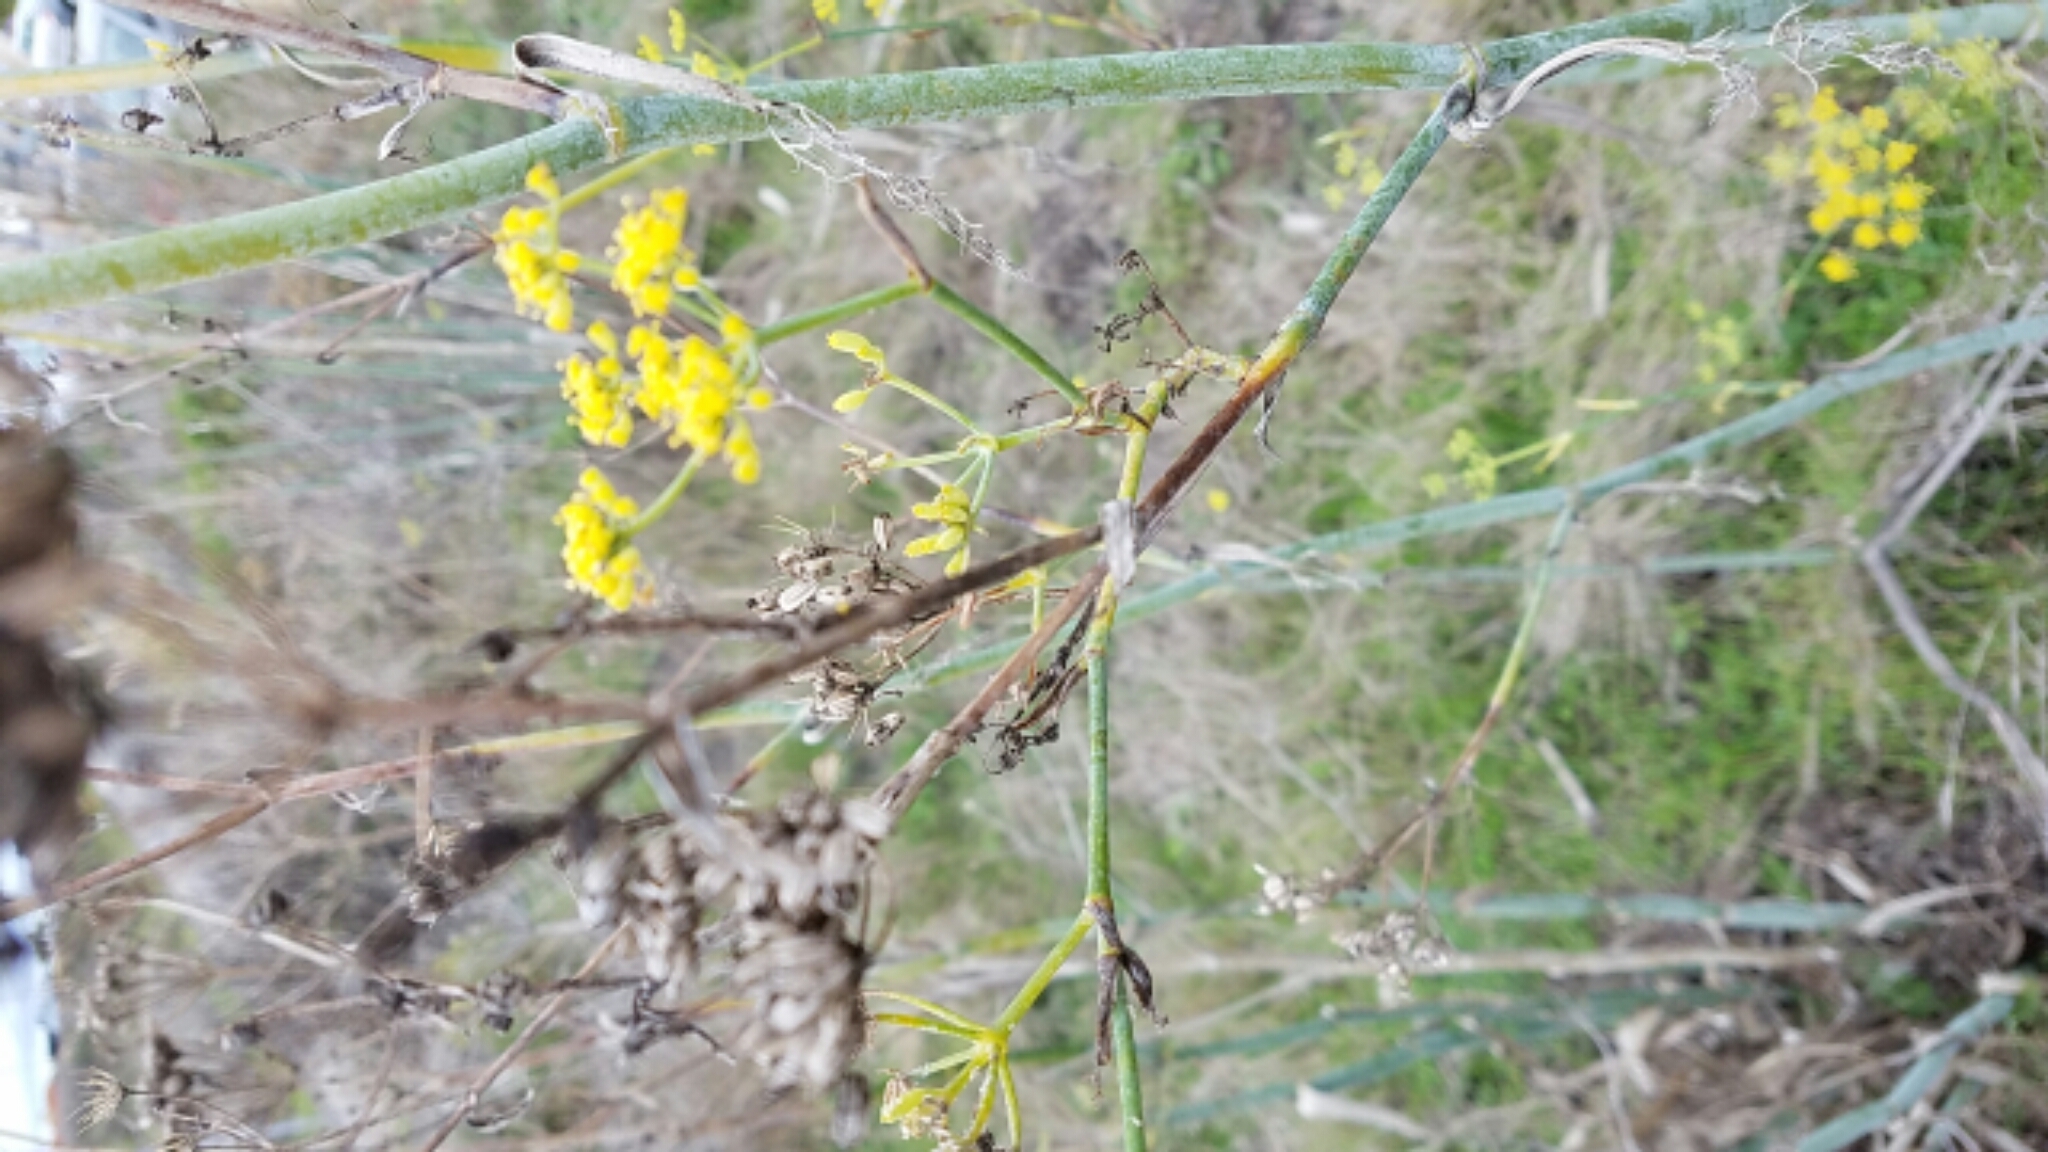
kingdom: Plantae
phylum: Tracheophyta
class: Magnoliopsida
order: Apiales
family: Apiaceae
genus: Foeniculum
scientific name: Foeniculum vulgare
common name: Fennel
